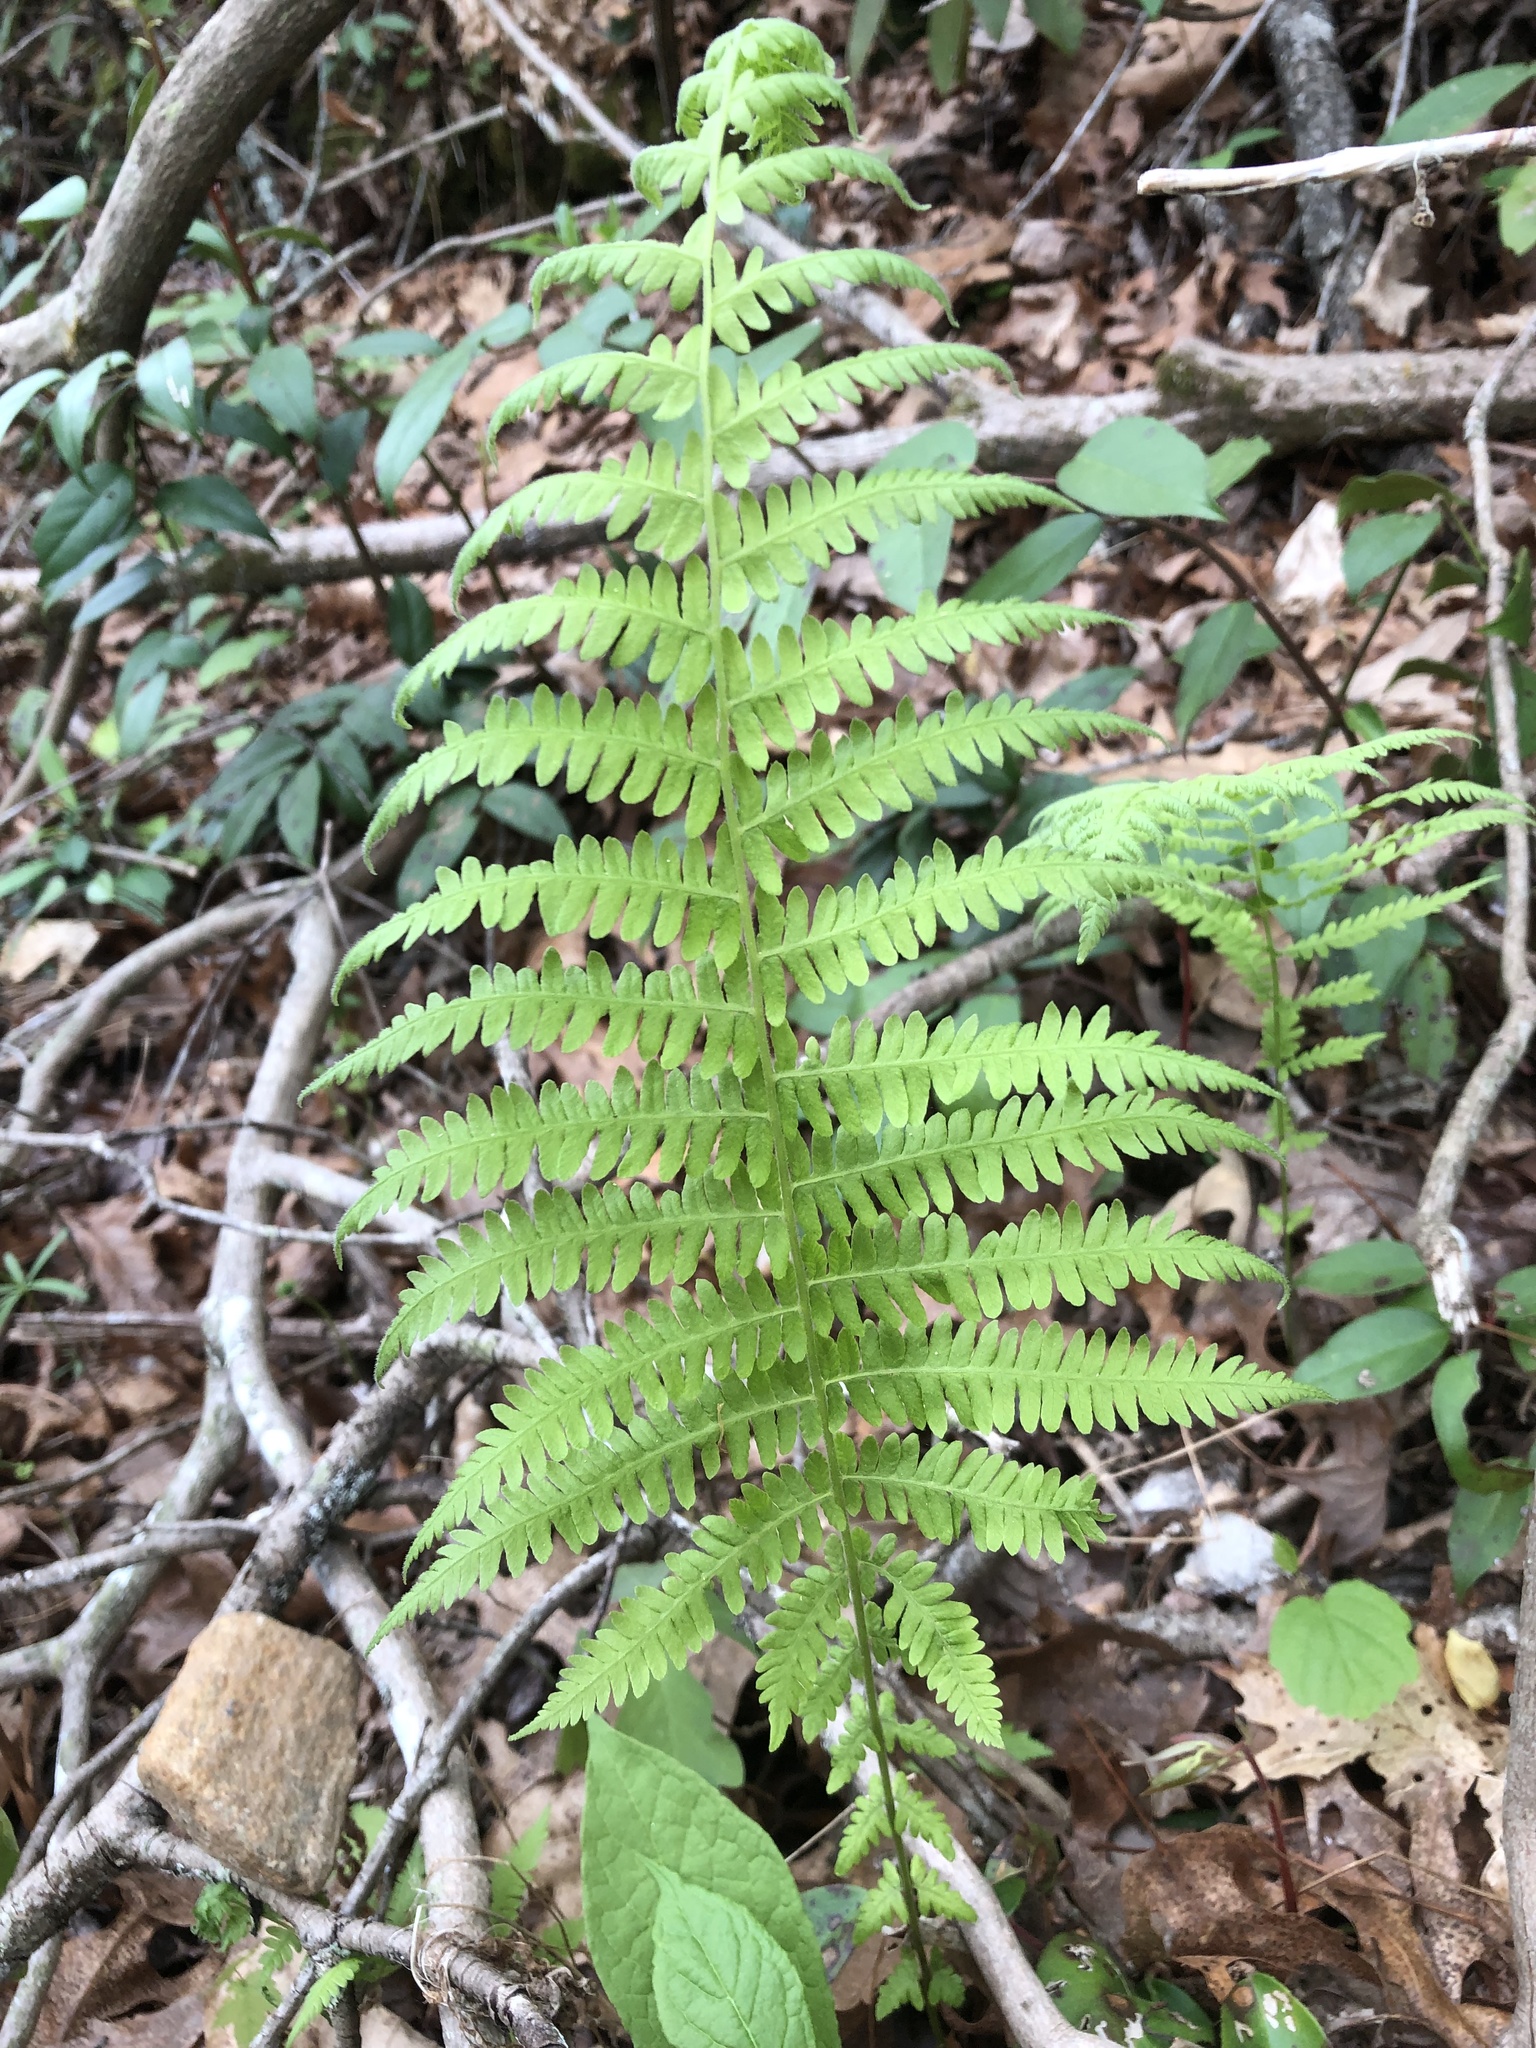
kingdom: Plantae
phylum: Tracheophyta
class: Polypodiopsida
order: Polypodiales
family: Thelypteridaceae
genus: Amauropelta
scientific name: Amauropelta noveboracensis
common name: New york fern
